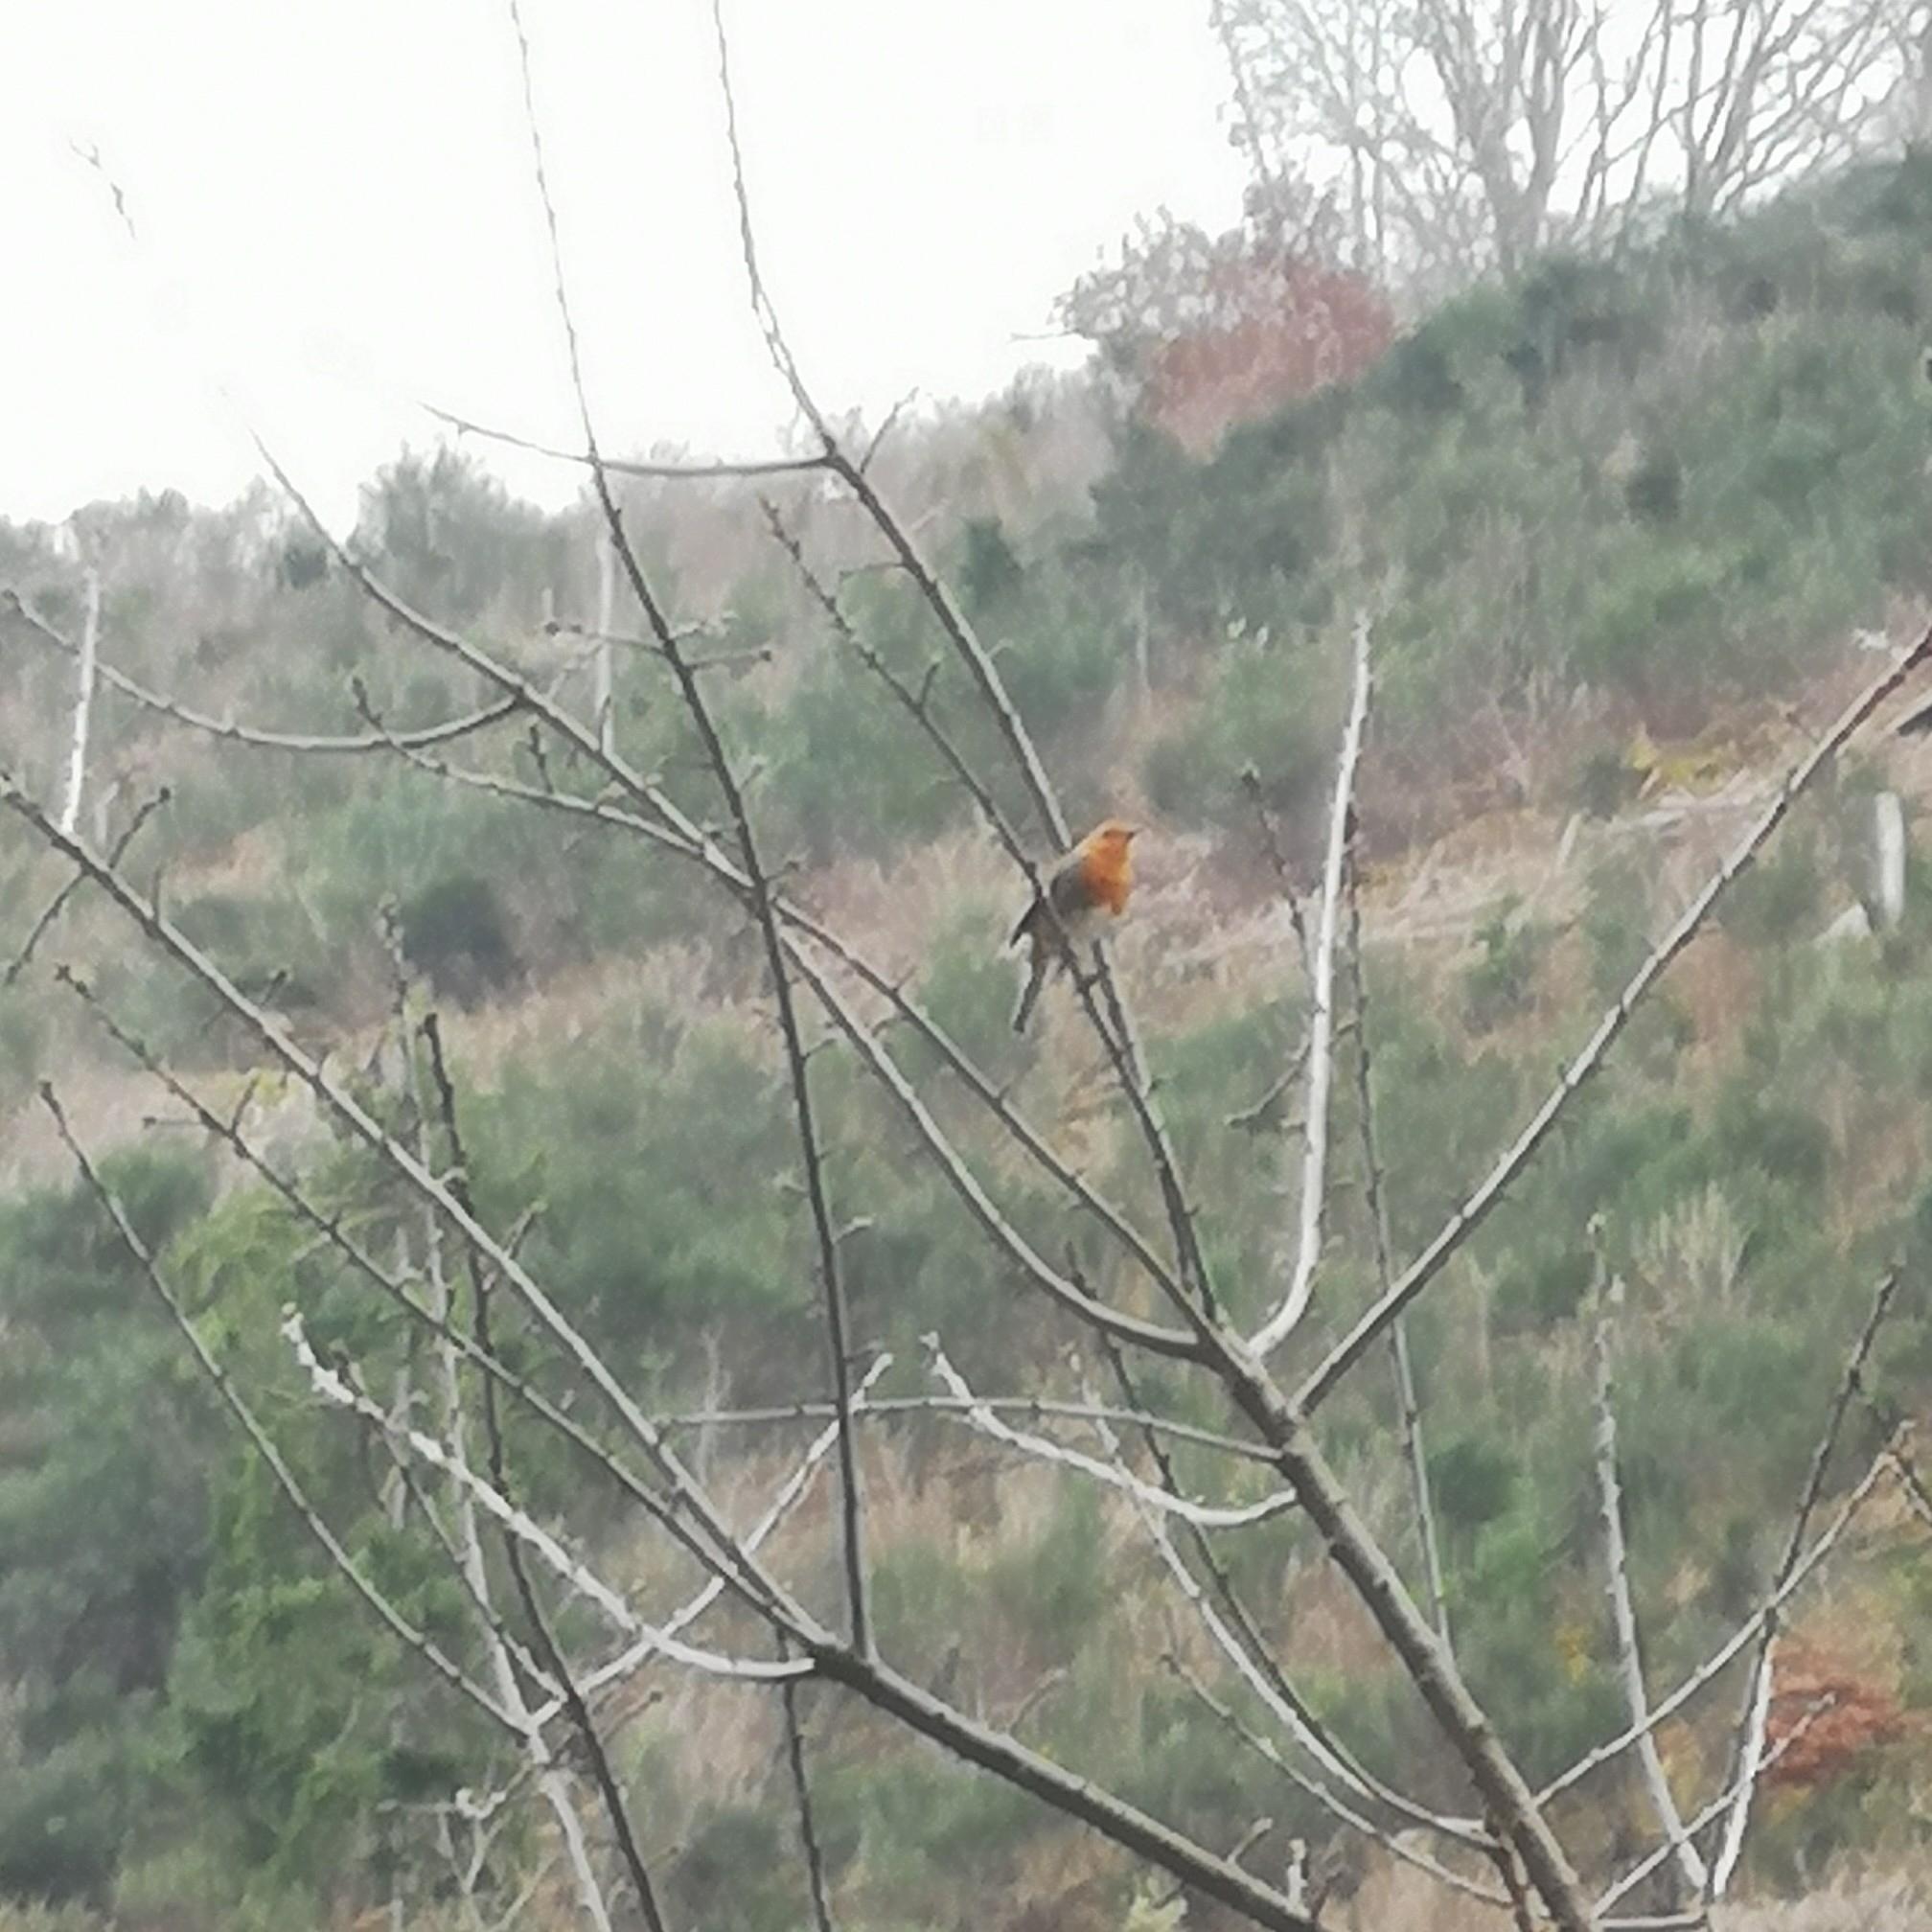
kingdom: Animalia
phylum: Chordata
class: Aves
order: Passeriformes
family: Muscicapidae
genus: Erithacus
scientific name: Erithacus rubecula
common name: European robin
